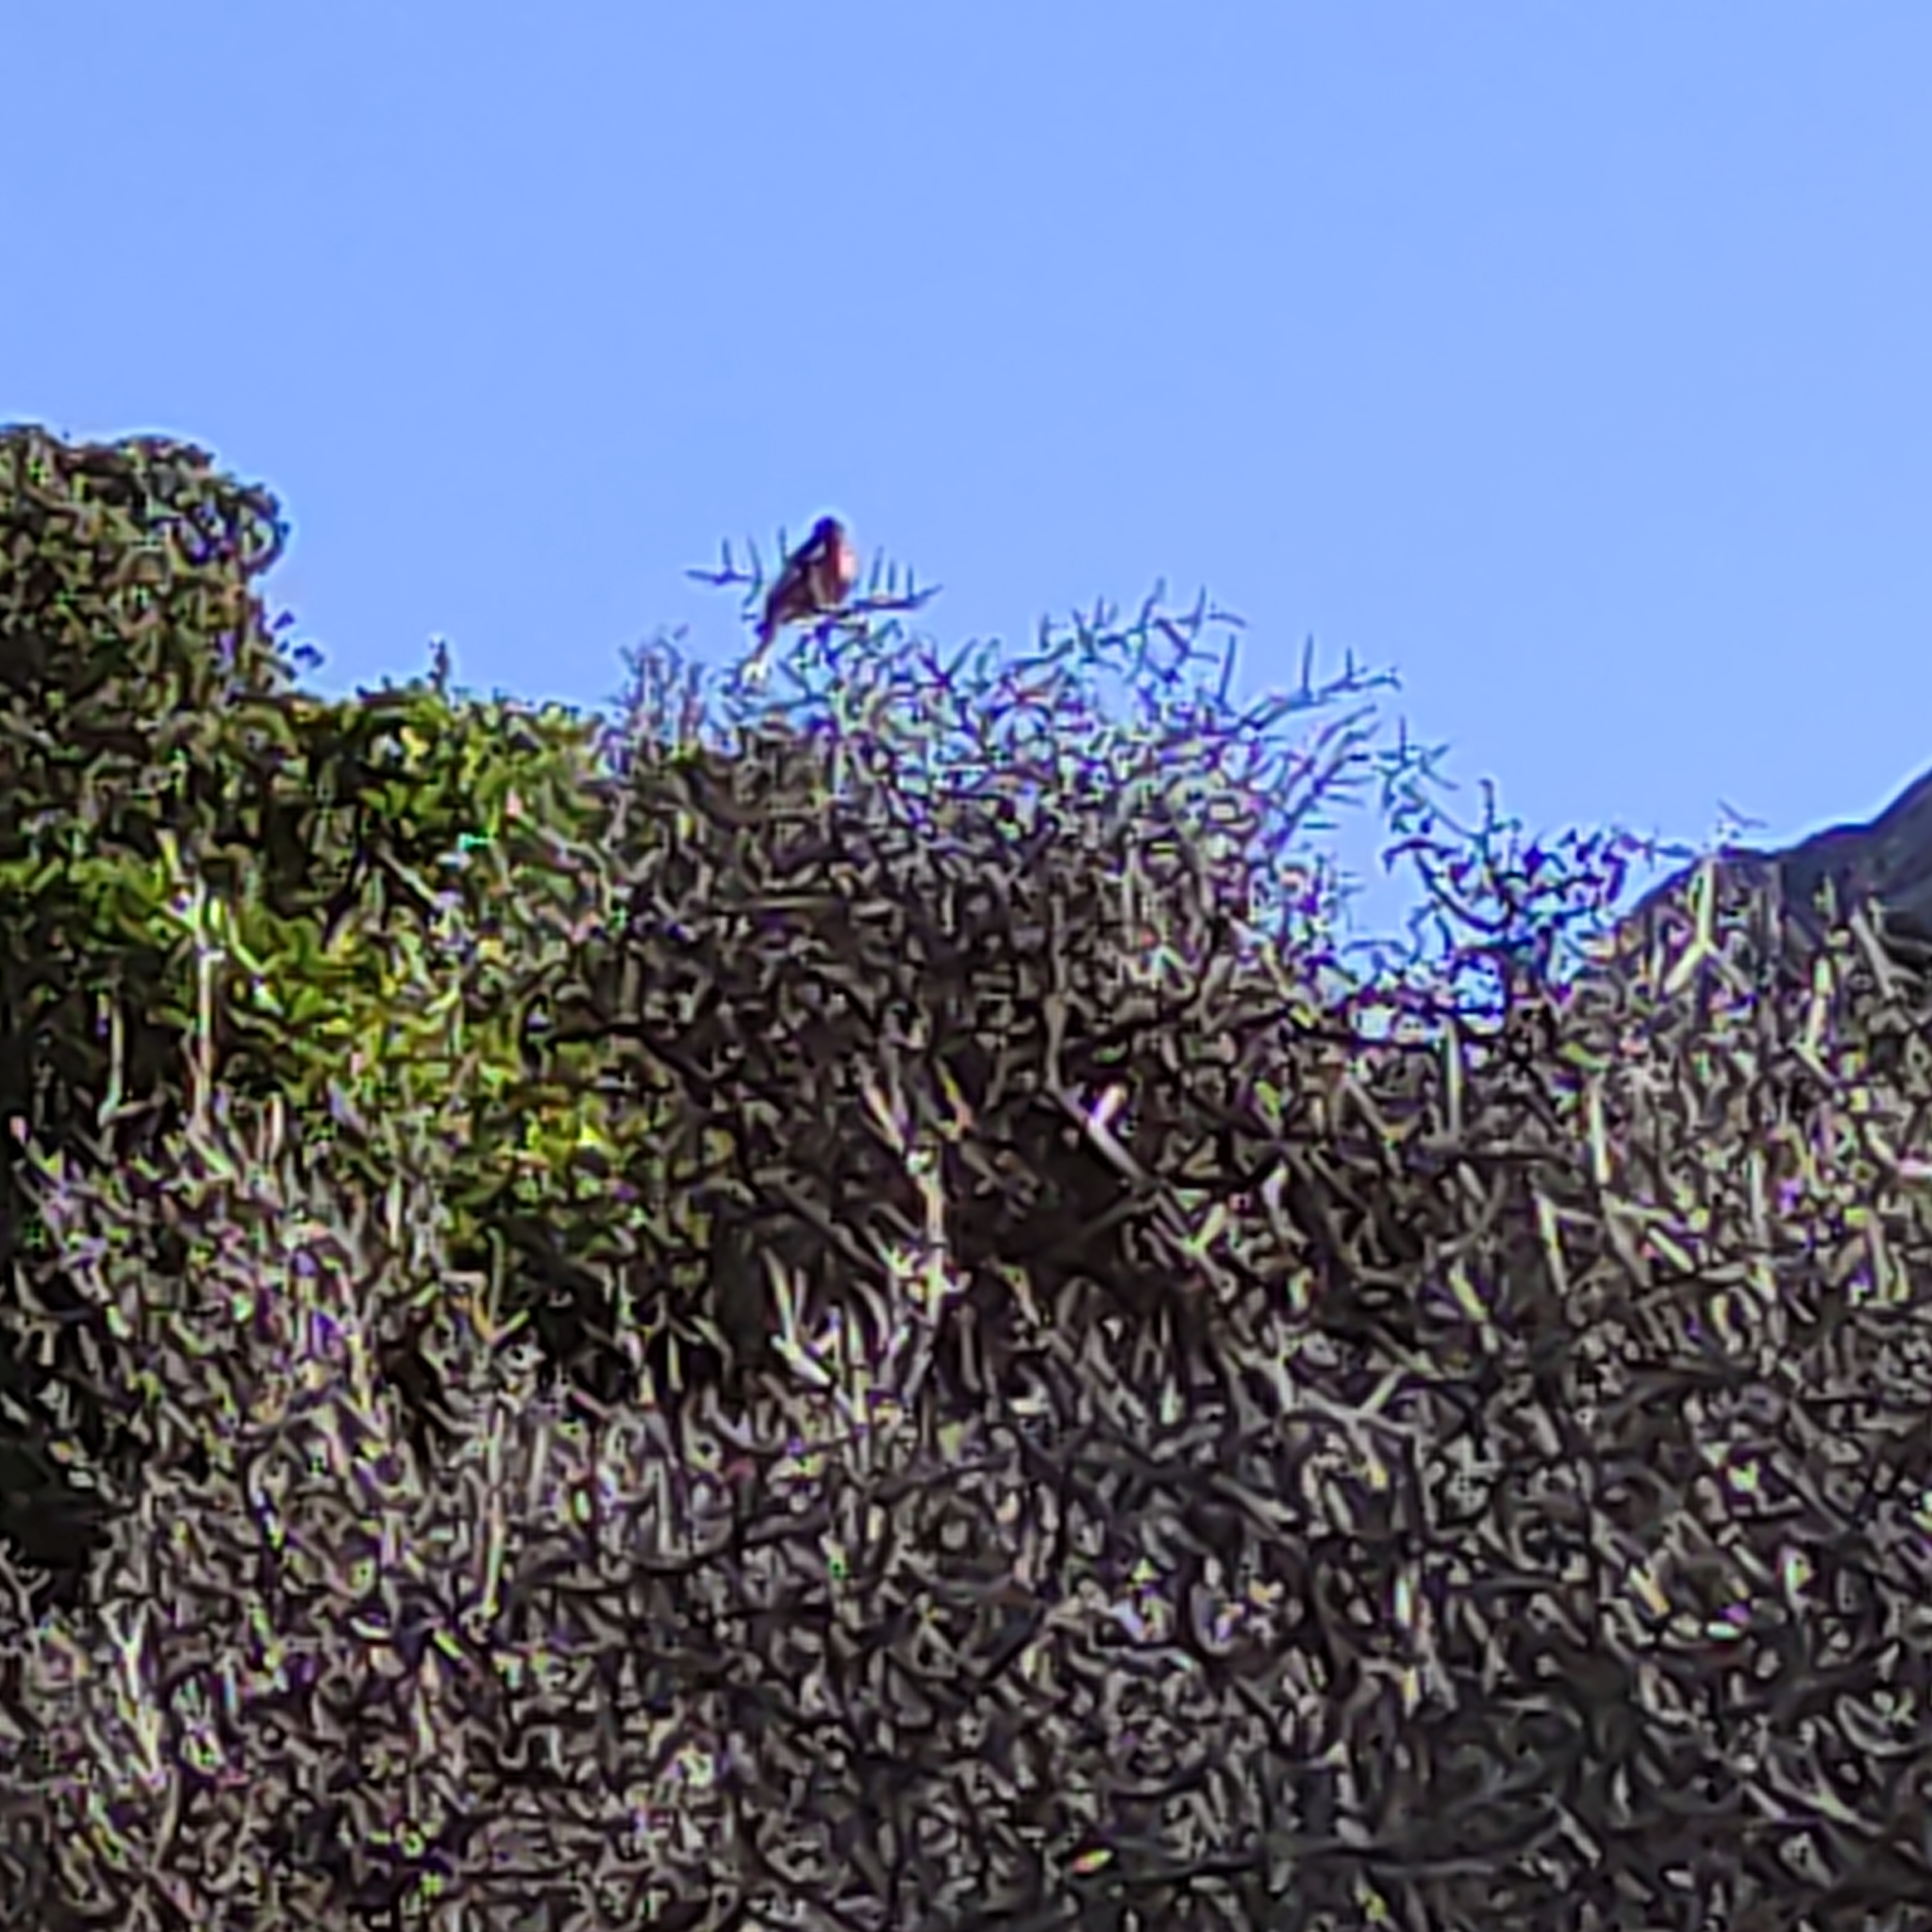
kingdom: Animalia
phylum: Chordata
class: Aves
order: Passeriformes
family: Fringillidae
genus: Fringilla
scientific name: Fringilla coelebs
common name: Common chaffinch
